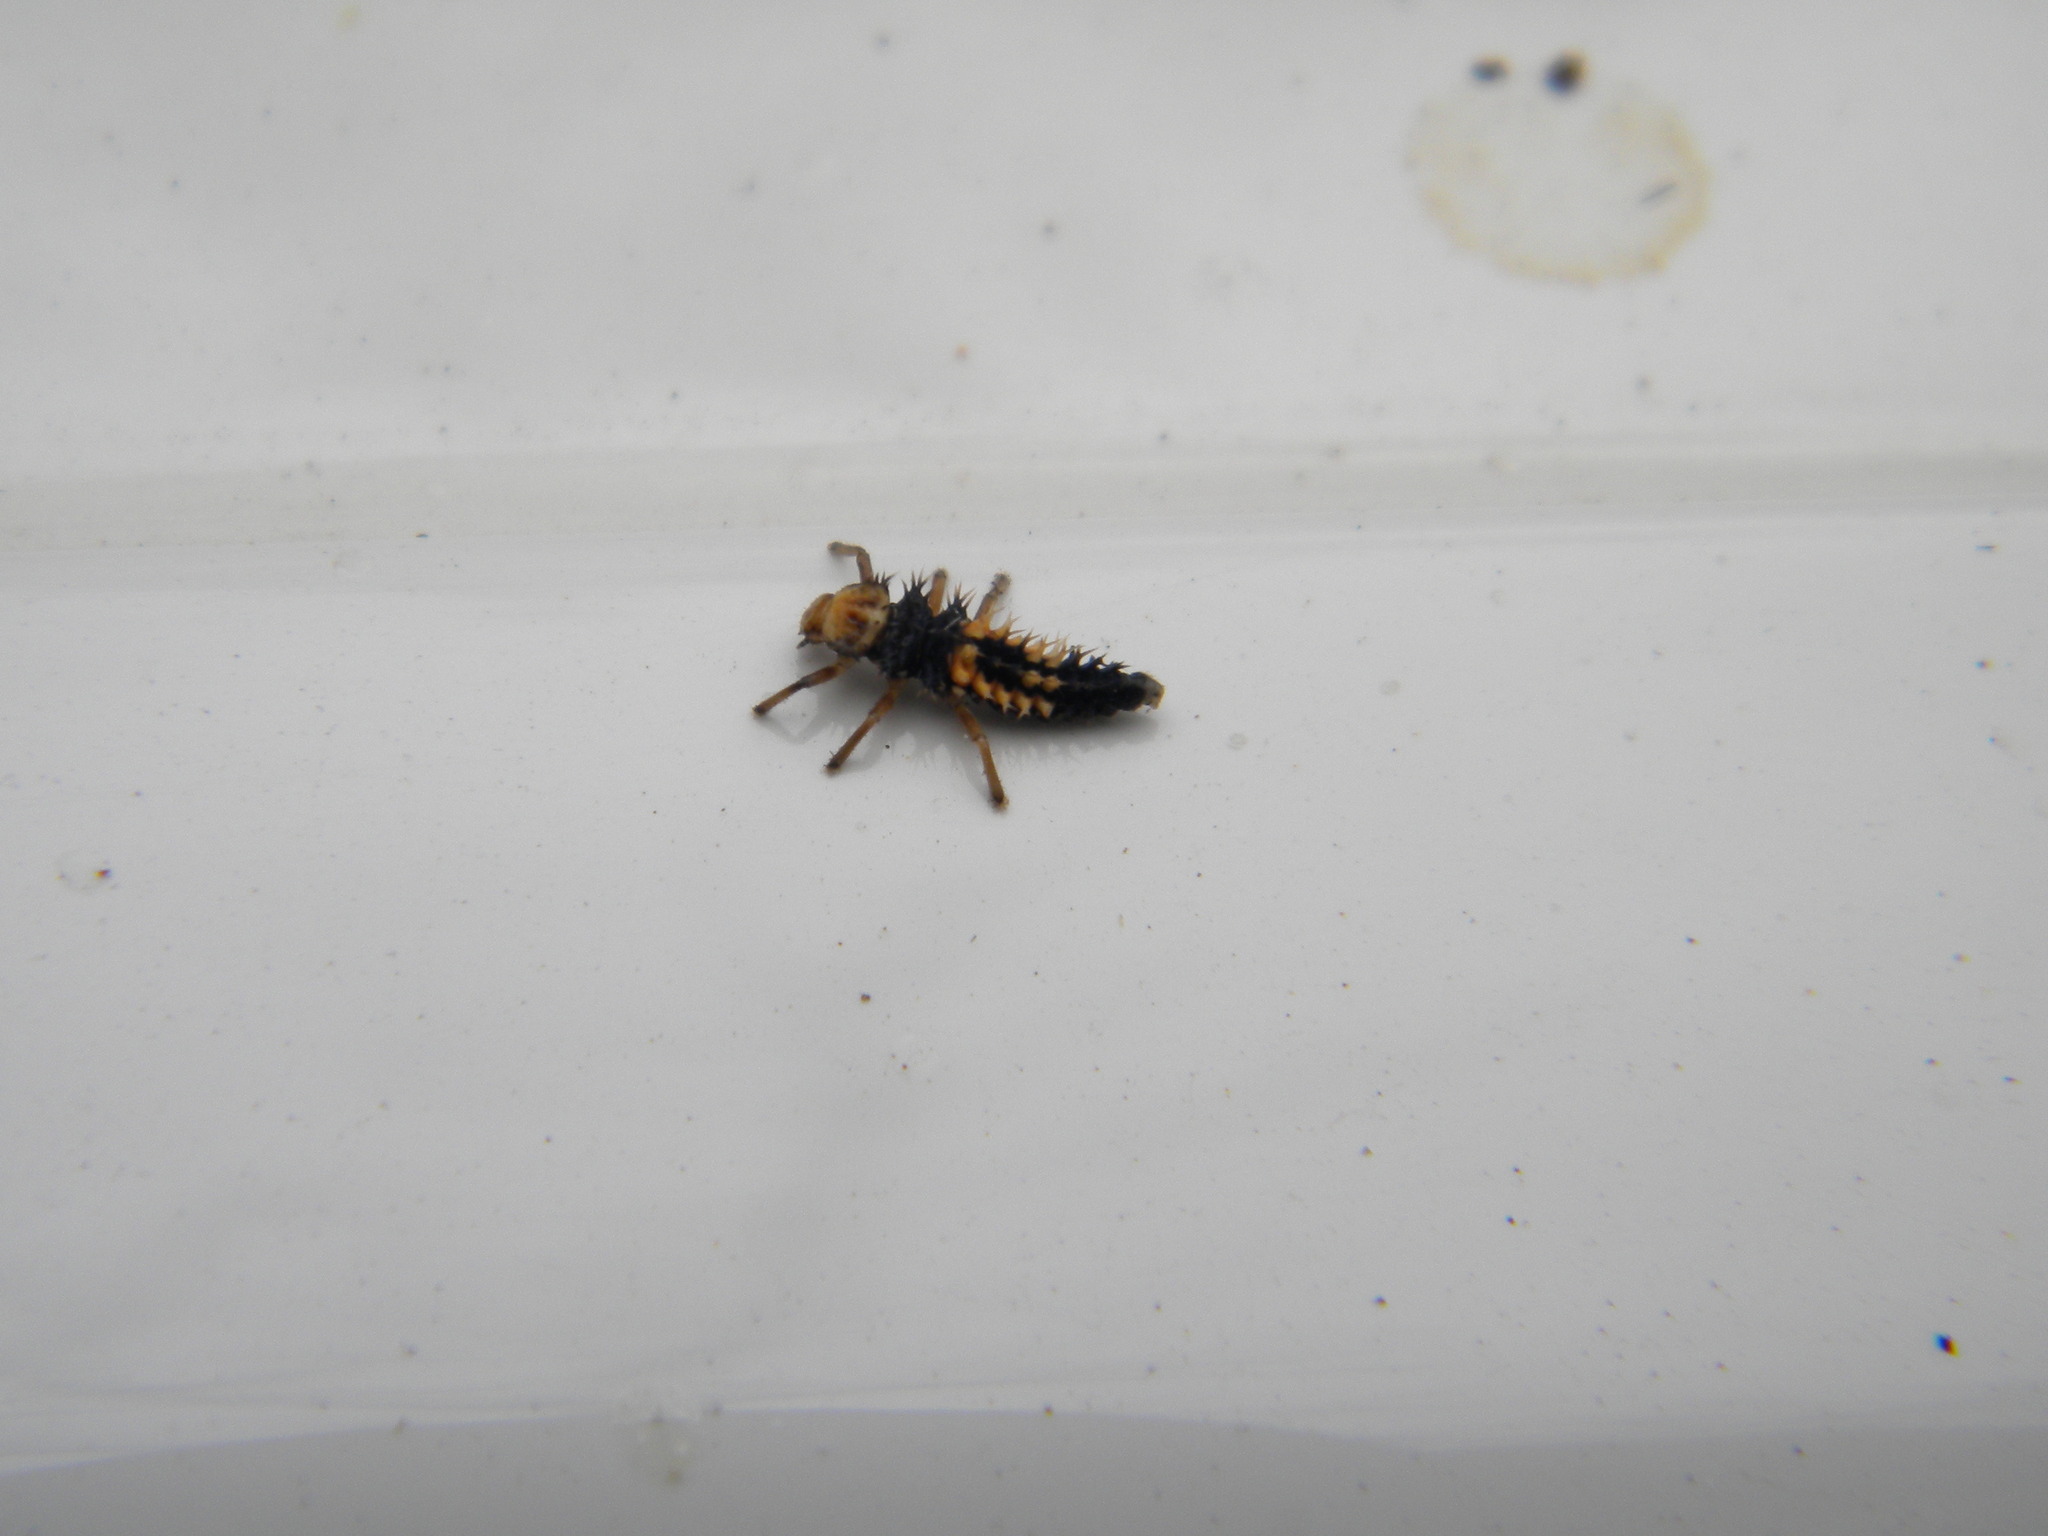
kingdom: Animalia
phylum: Arthropoda
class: Insecta
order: Coleoptera
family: Coccinellidae
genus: Harmonia
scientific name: Harmonia axyridis
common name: Harlequin ladybird
